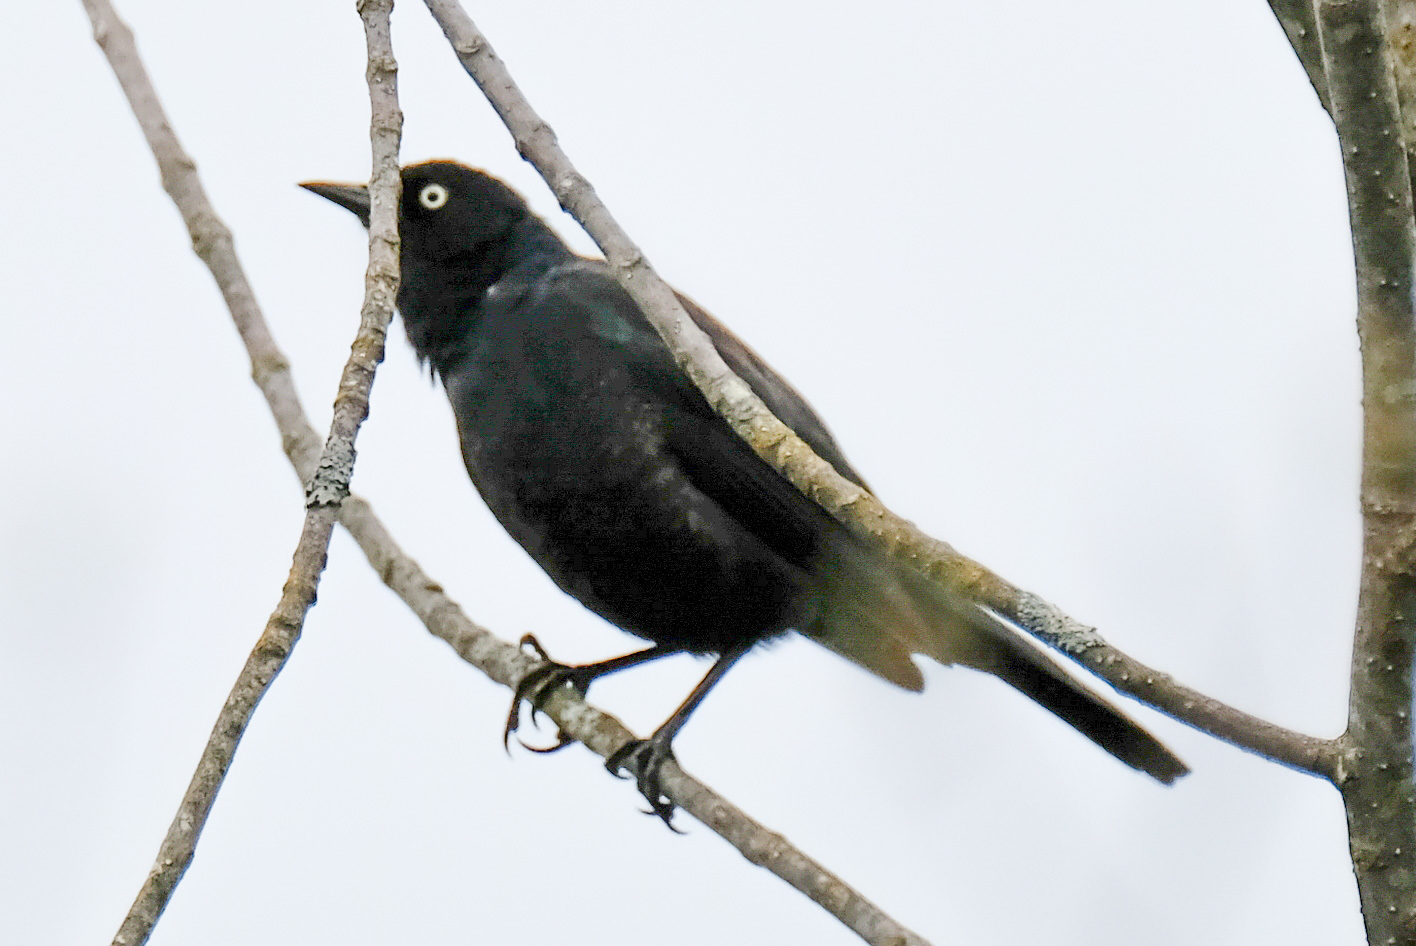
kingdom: Animalia
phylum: Chordata
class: Aves
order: Passeriformes
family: Icteridae
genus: Euphagus
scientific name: Euphagus carolinus
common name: Rusty blackbird
